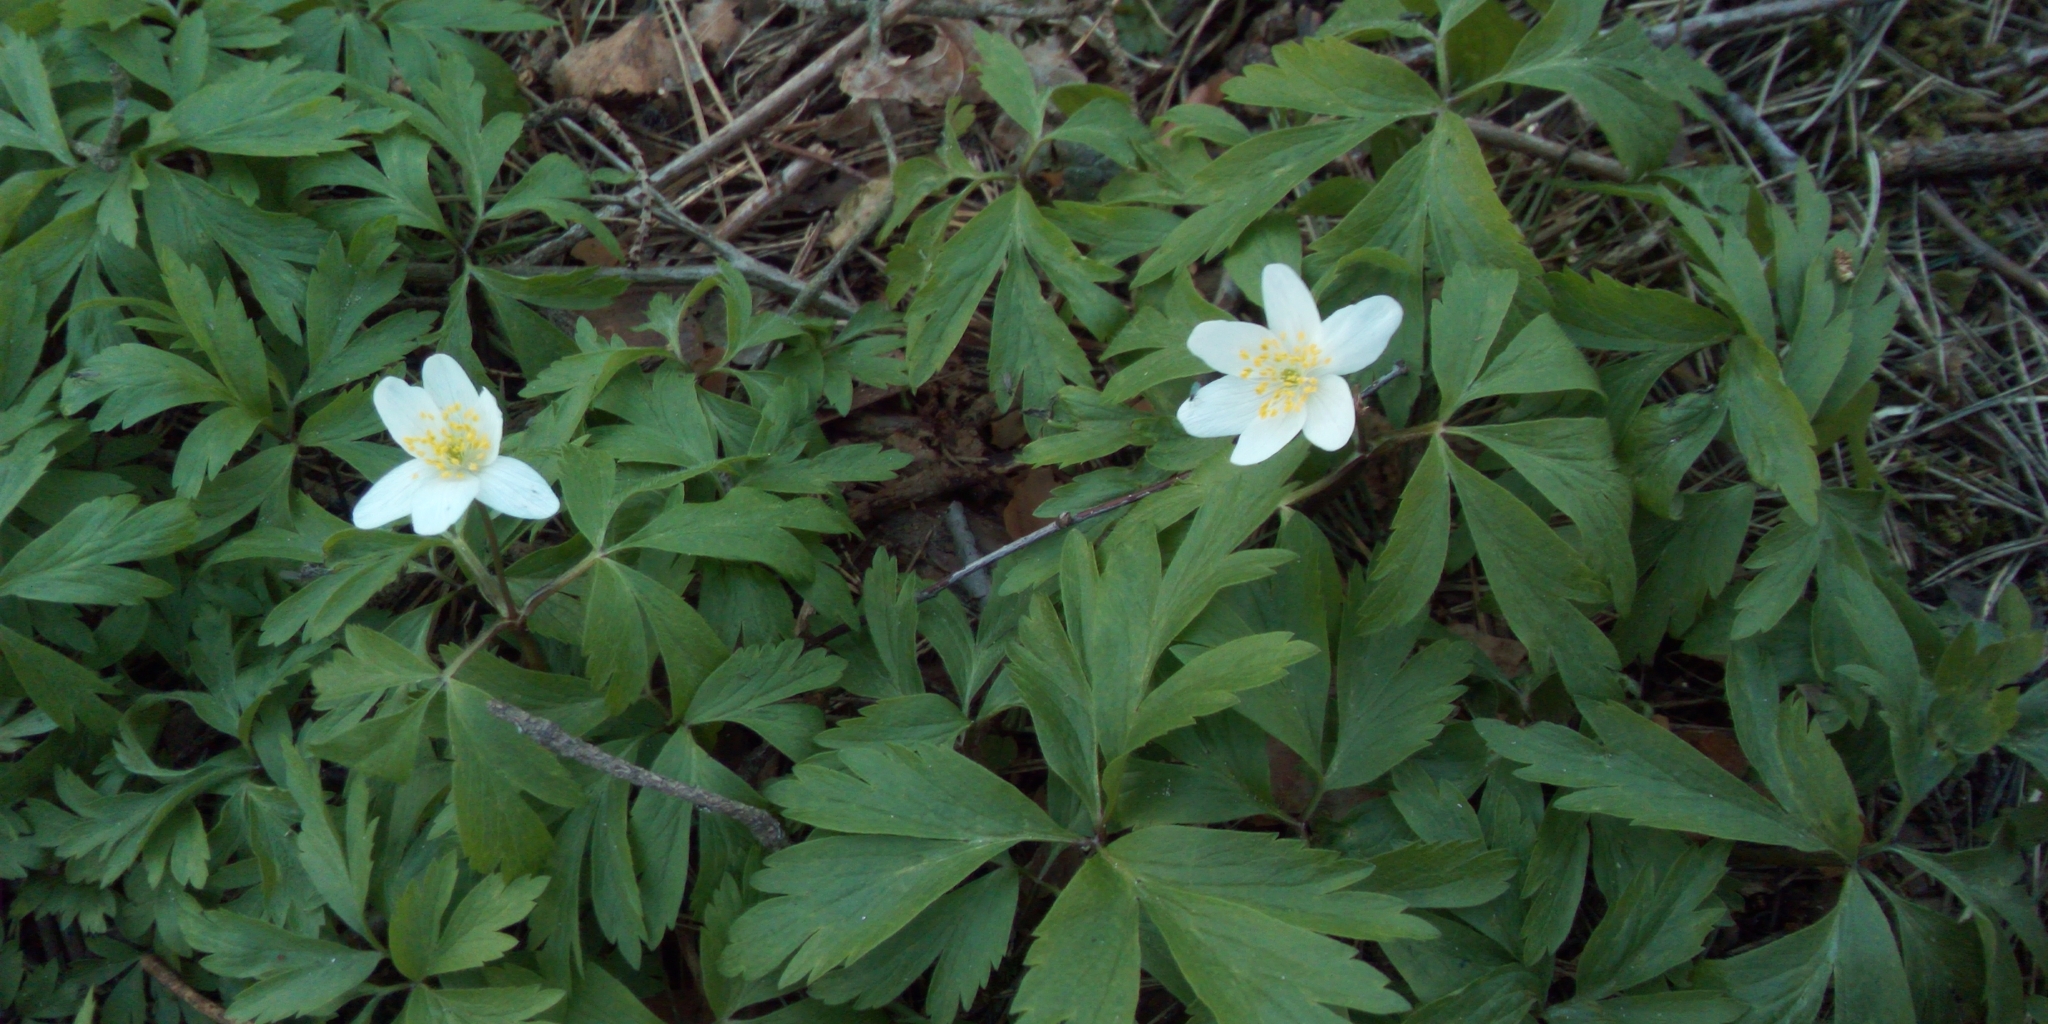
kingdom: Plantae
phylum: Tracheophyta
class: Magnoliopsida
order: Ranunculales
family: Ranunculaceae
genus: Anemone
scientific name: Anemone nemorosa
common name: Wood anemone
